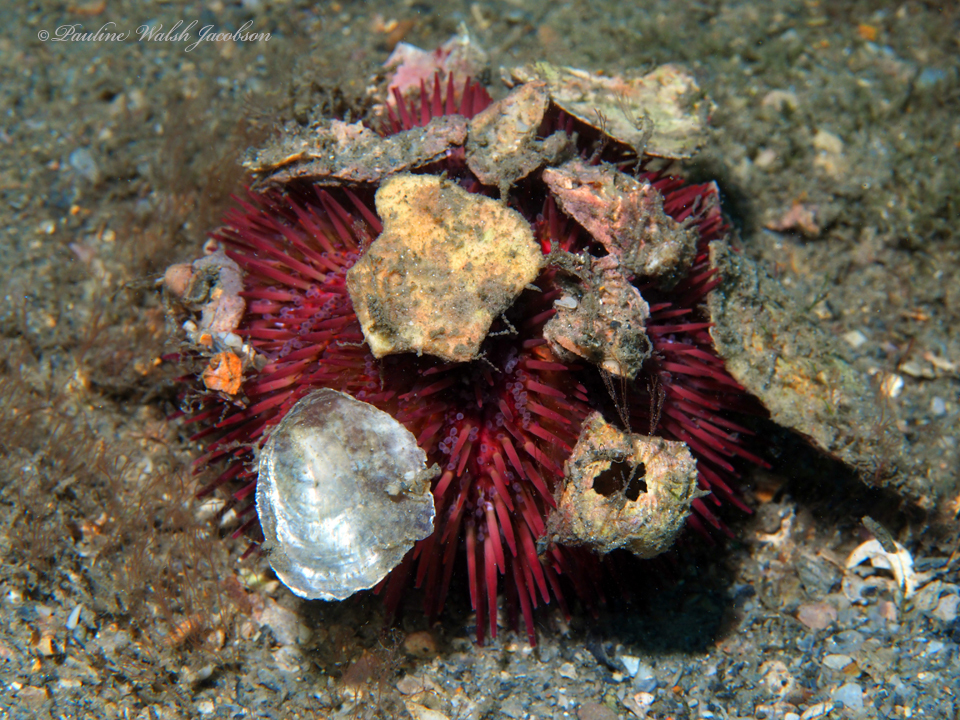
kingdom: Animalia
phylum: Echinodermata
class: Echinoidea
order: Camarodonta
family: Toxopneustidae
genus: Lytechinus
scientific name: Lytechinus variegatus
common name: Variegated urchin
